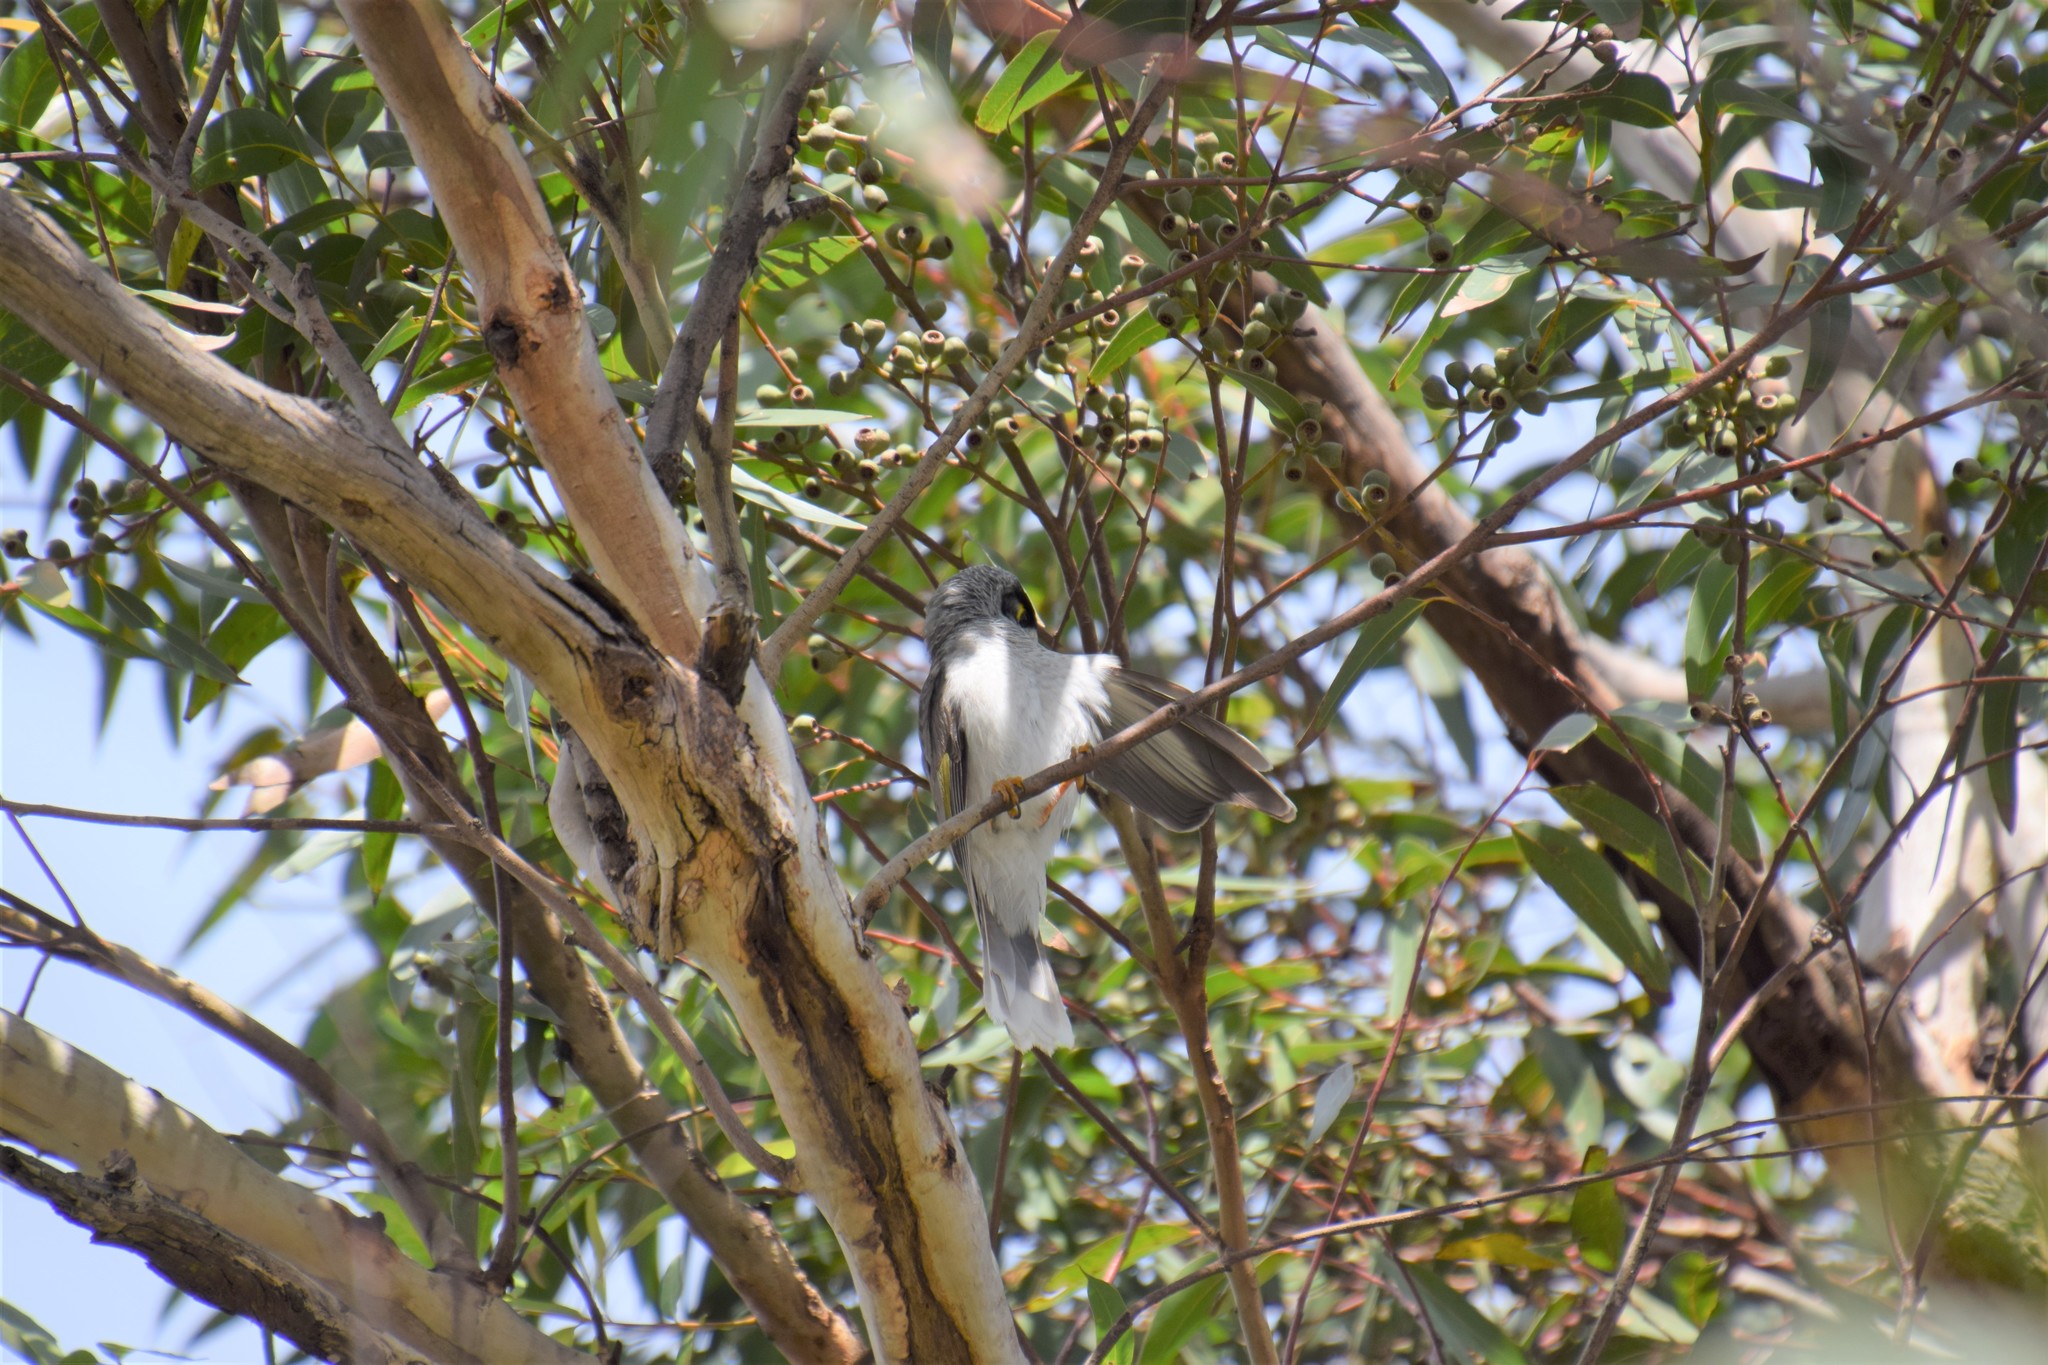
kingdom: Animalia
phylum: Chordata
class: Aves
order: Passeriformes
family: Meliphagidae
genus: Manorina
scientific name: Manorina melanocephala
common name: Noisy miner
